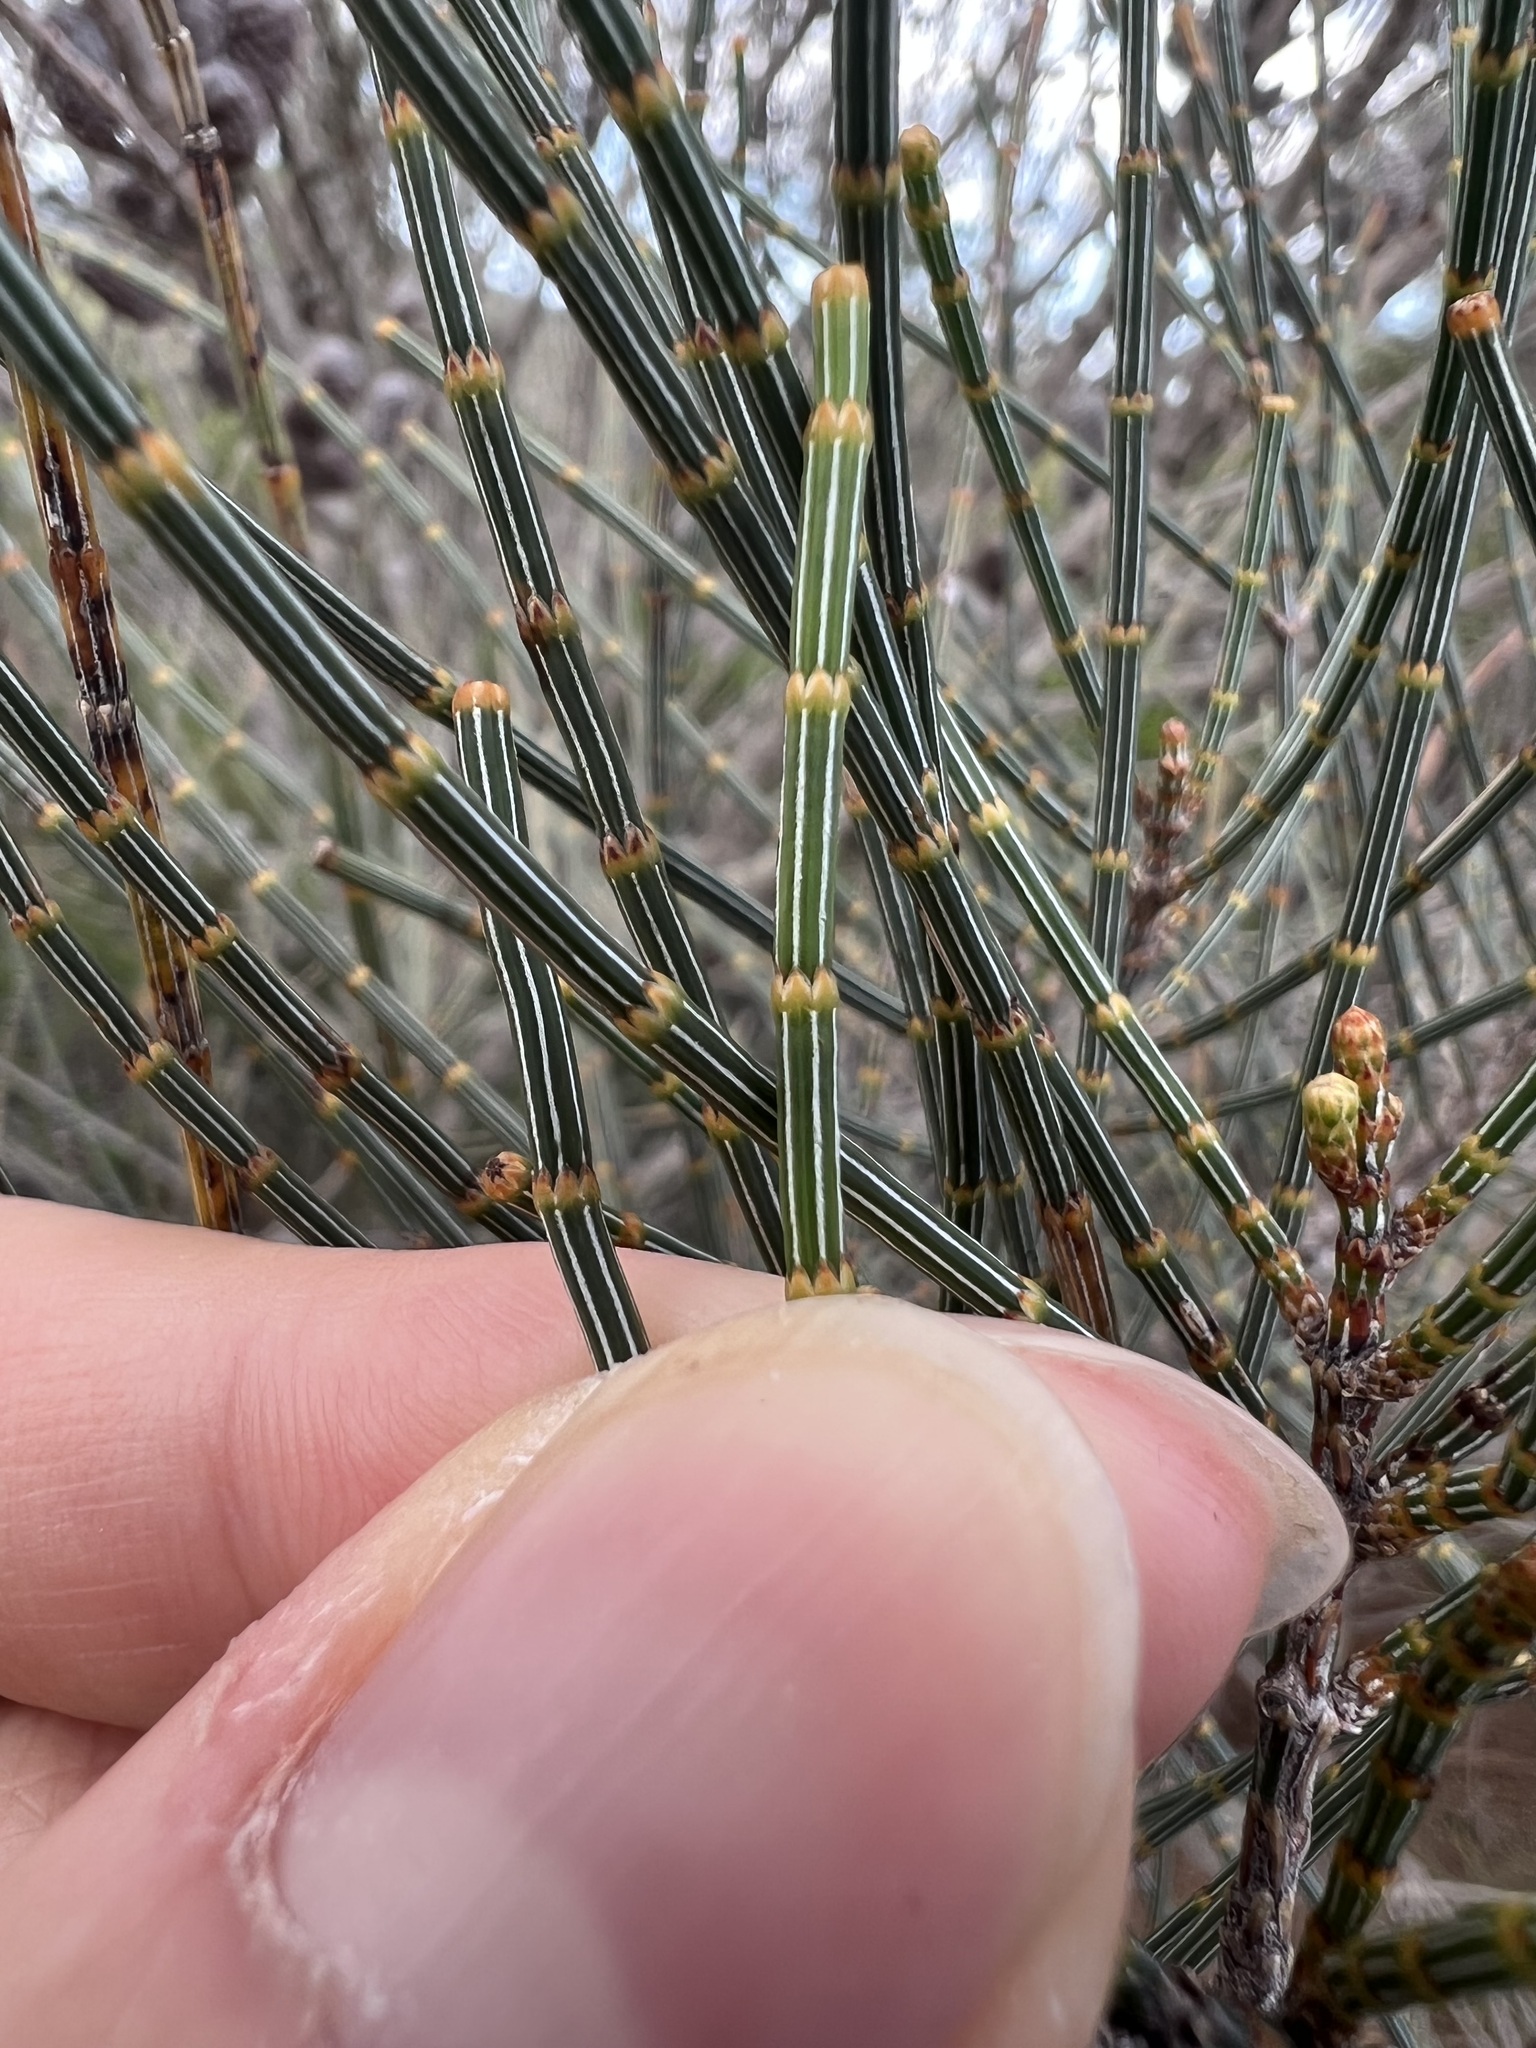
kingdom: Plantae
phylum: Tracheophyta
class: Magnoliopsida
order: Fagales
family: Casuarinaceae
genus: Allocasuarina
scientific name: Allocasuarina distyla
